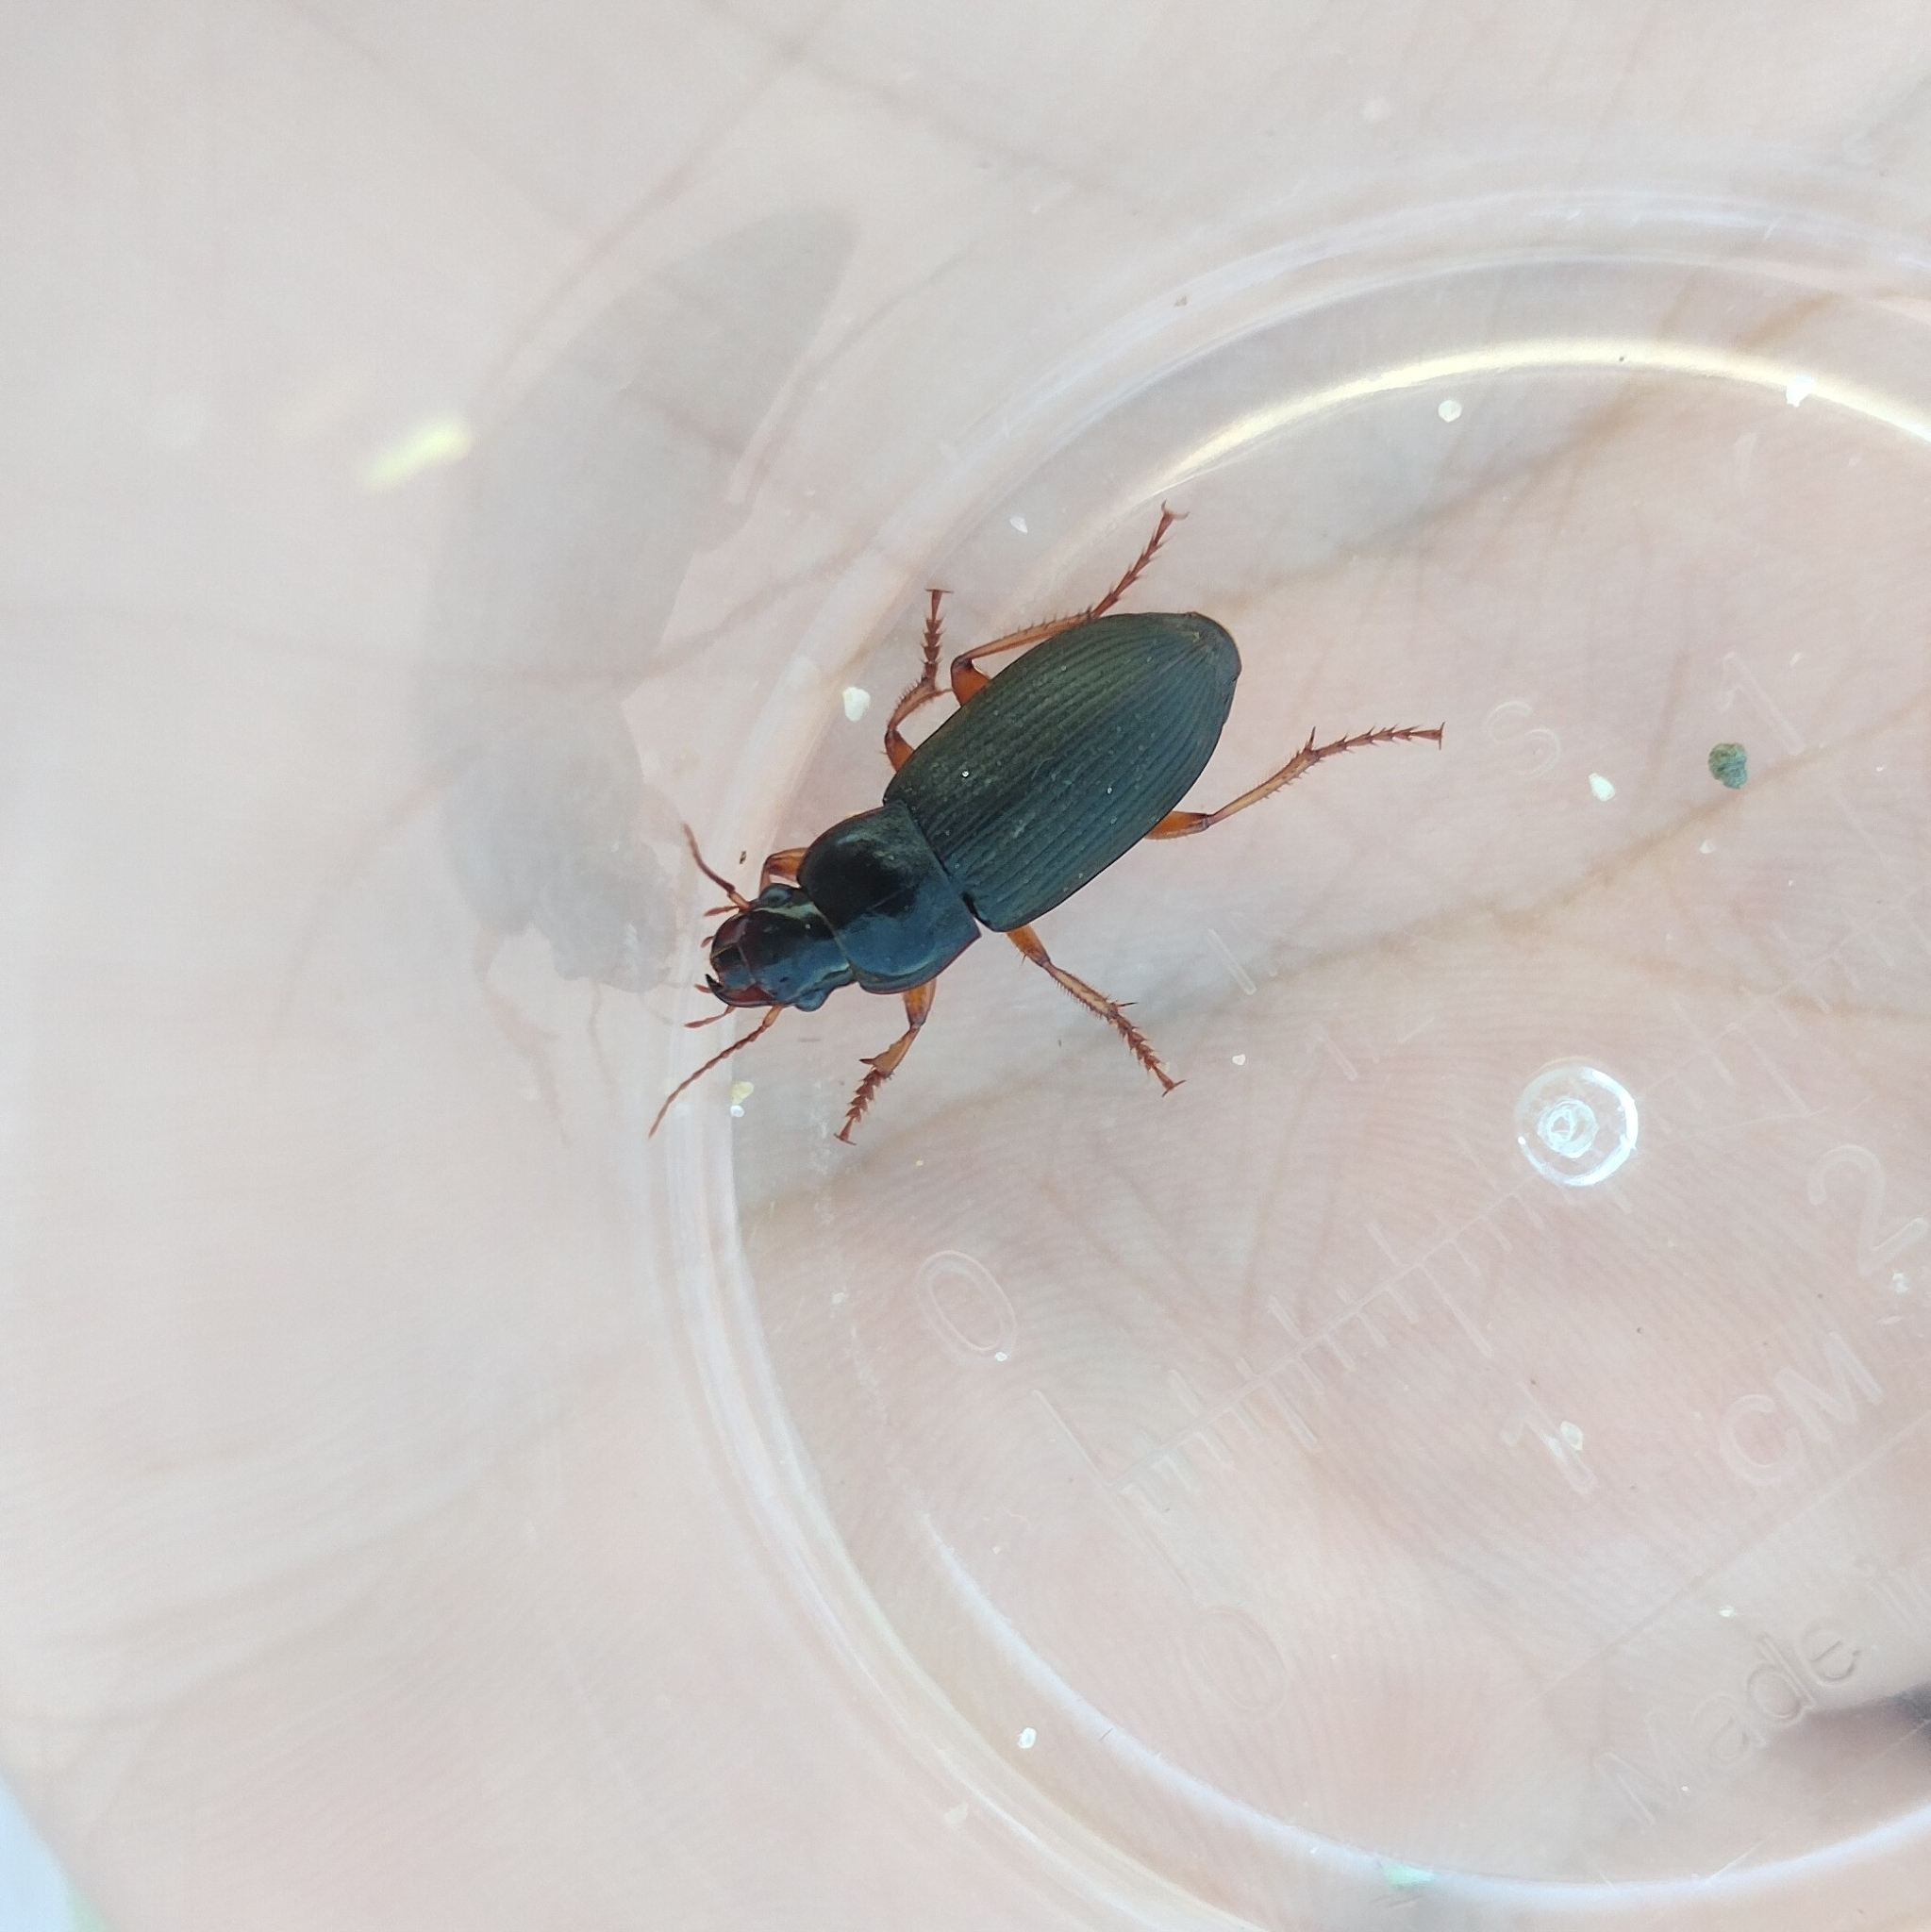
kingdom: Animalia
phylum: Arthropoda
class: Insecta
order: Coleoptera
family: Carabidae
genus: Harpalus
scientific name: Harpalus rufipes
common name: Strawberry harp ground beetle
